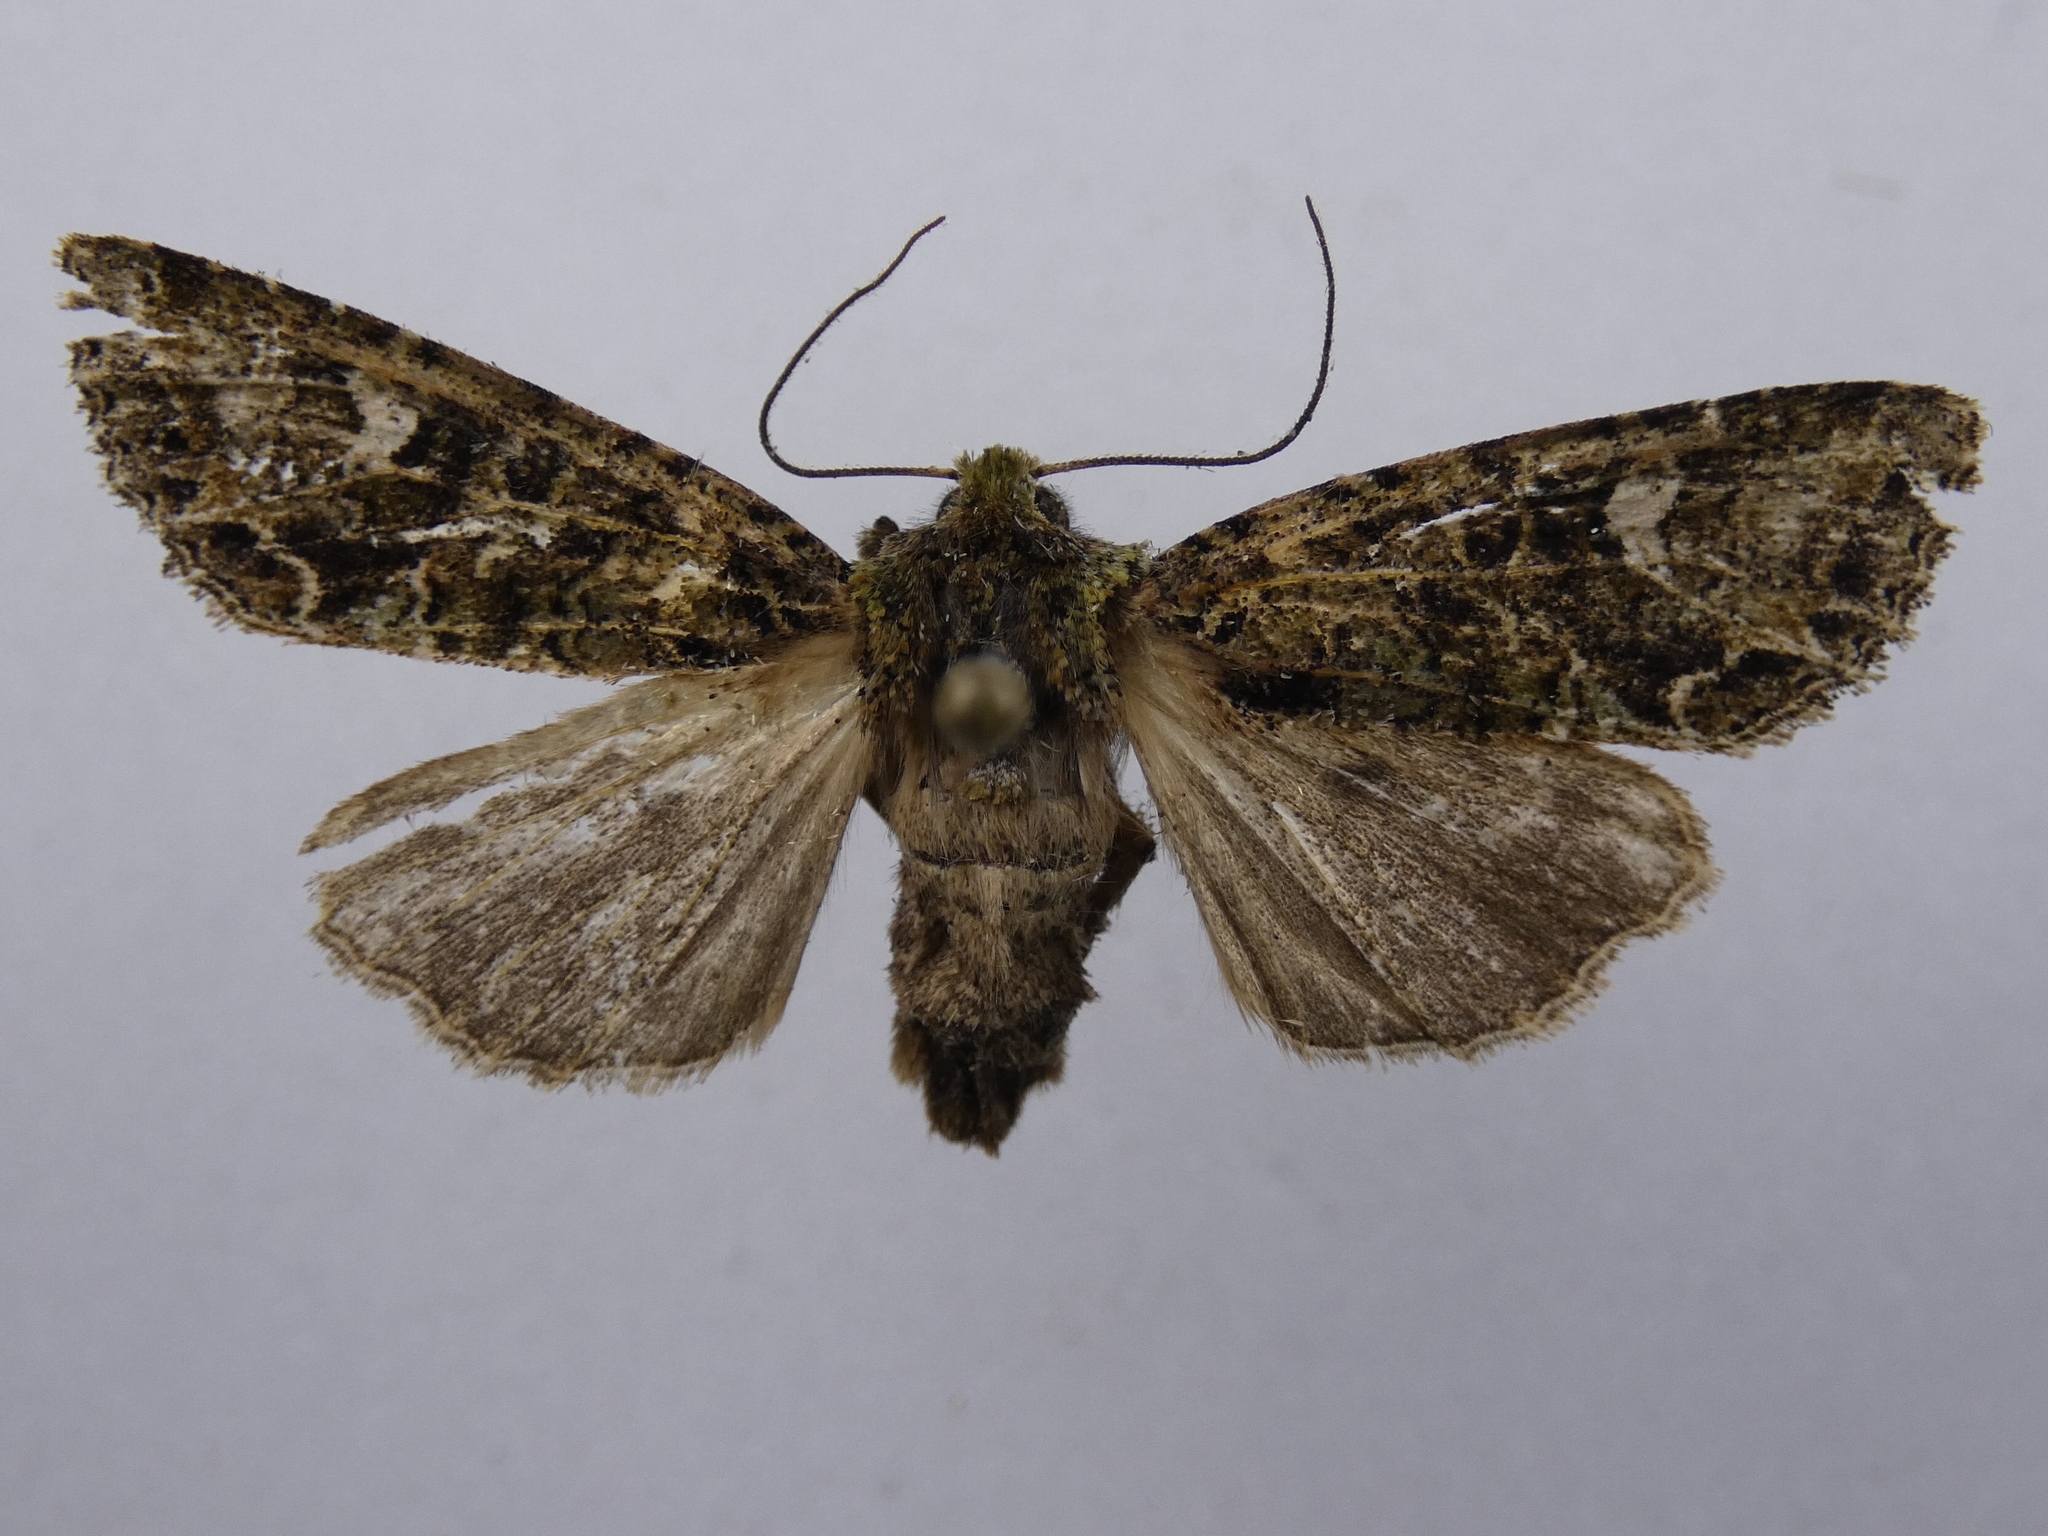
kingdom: Animalia
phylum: Arthropoda
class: Insecta
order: Lepidoptera
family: Noctuidae
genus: Ichneutica
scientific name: Ichneutica
